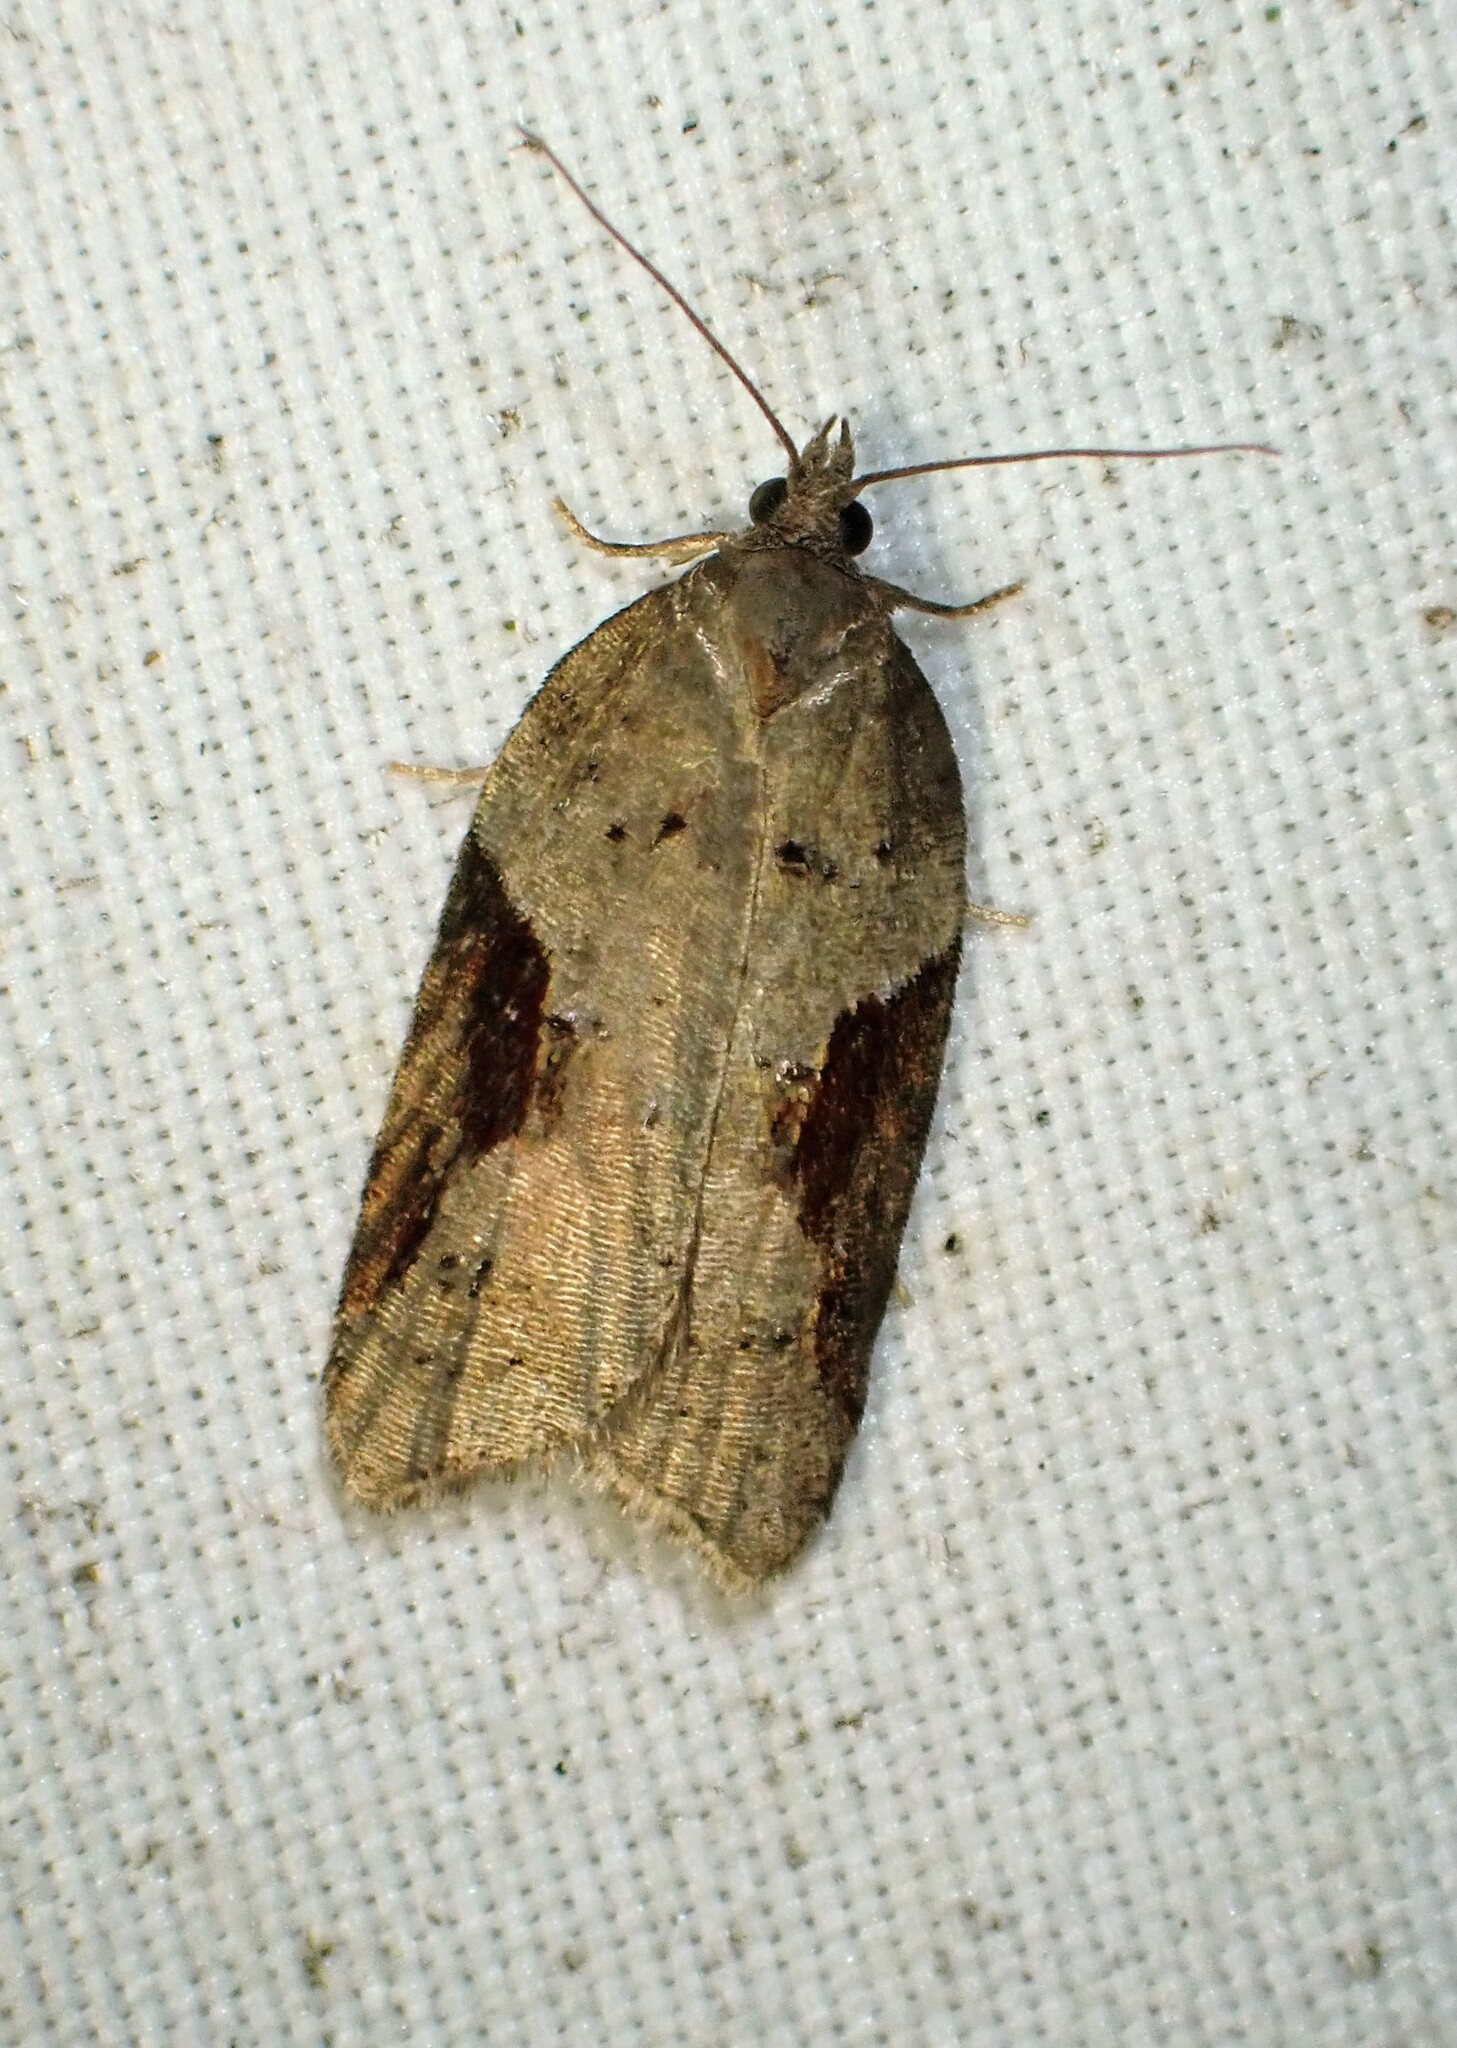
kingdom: Animalia
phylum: Arthropoda
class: Insecta
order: Lepidoptera
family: Tortricidae
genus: Acleris
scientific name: Acleris macdunnoughi
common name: Macdunnough's acleris
